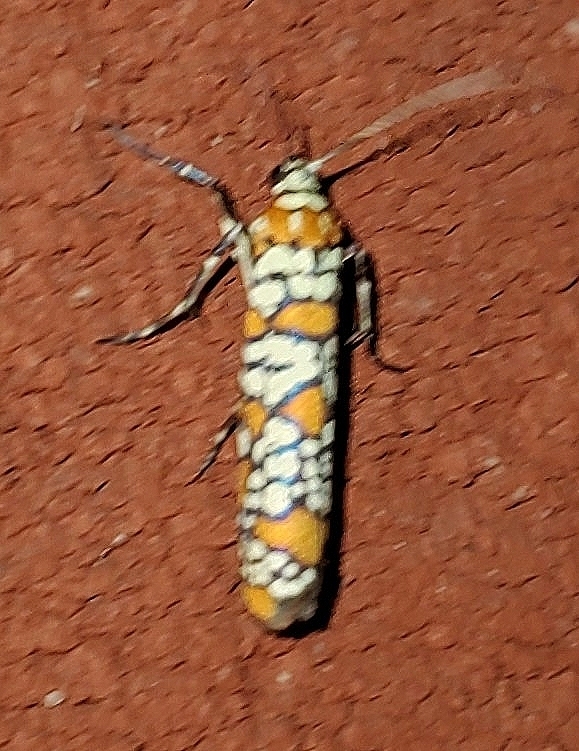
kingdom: Animalia
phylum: Arthropoda
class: Insecta
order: Lepidoptera
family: Attevidae
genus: Atteva
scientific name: Atteva punctella
